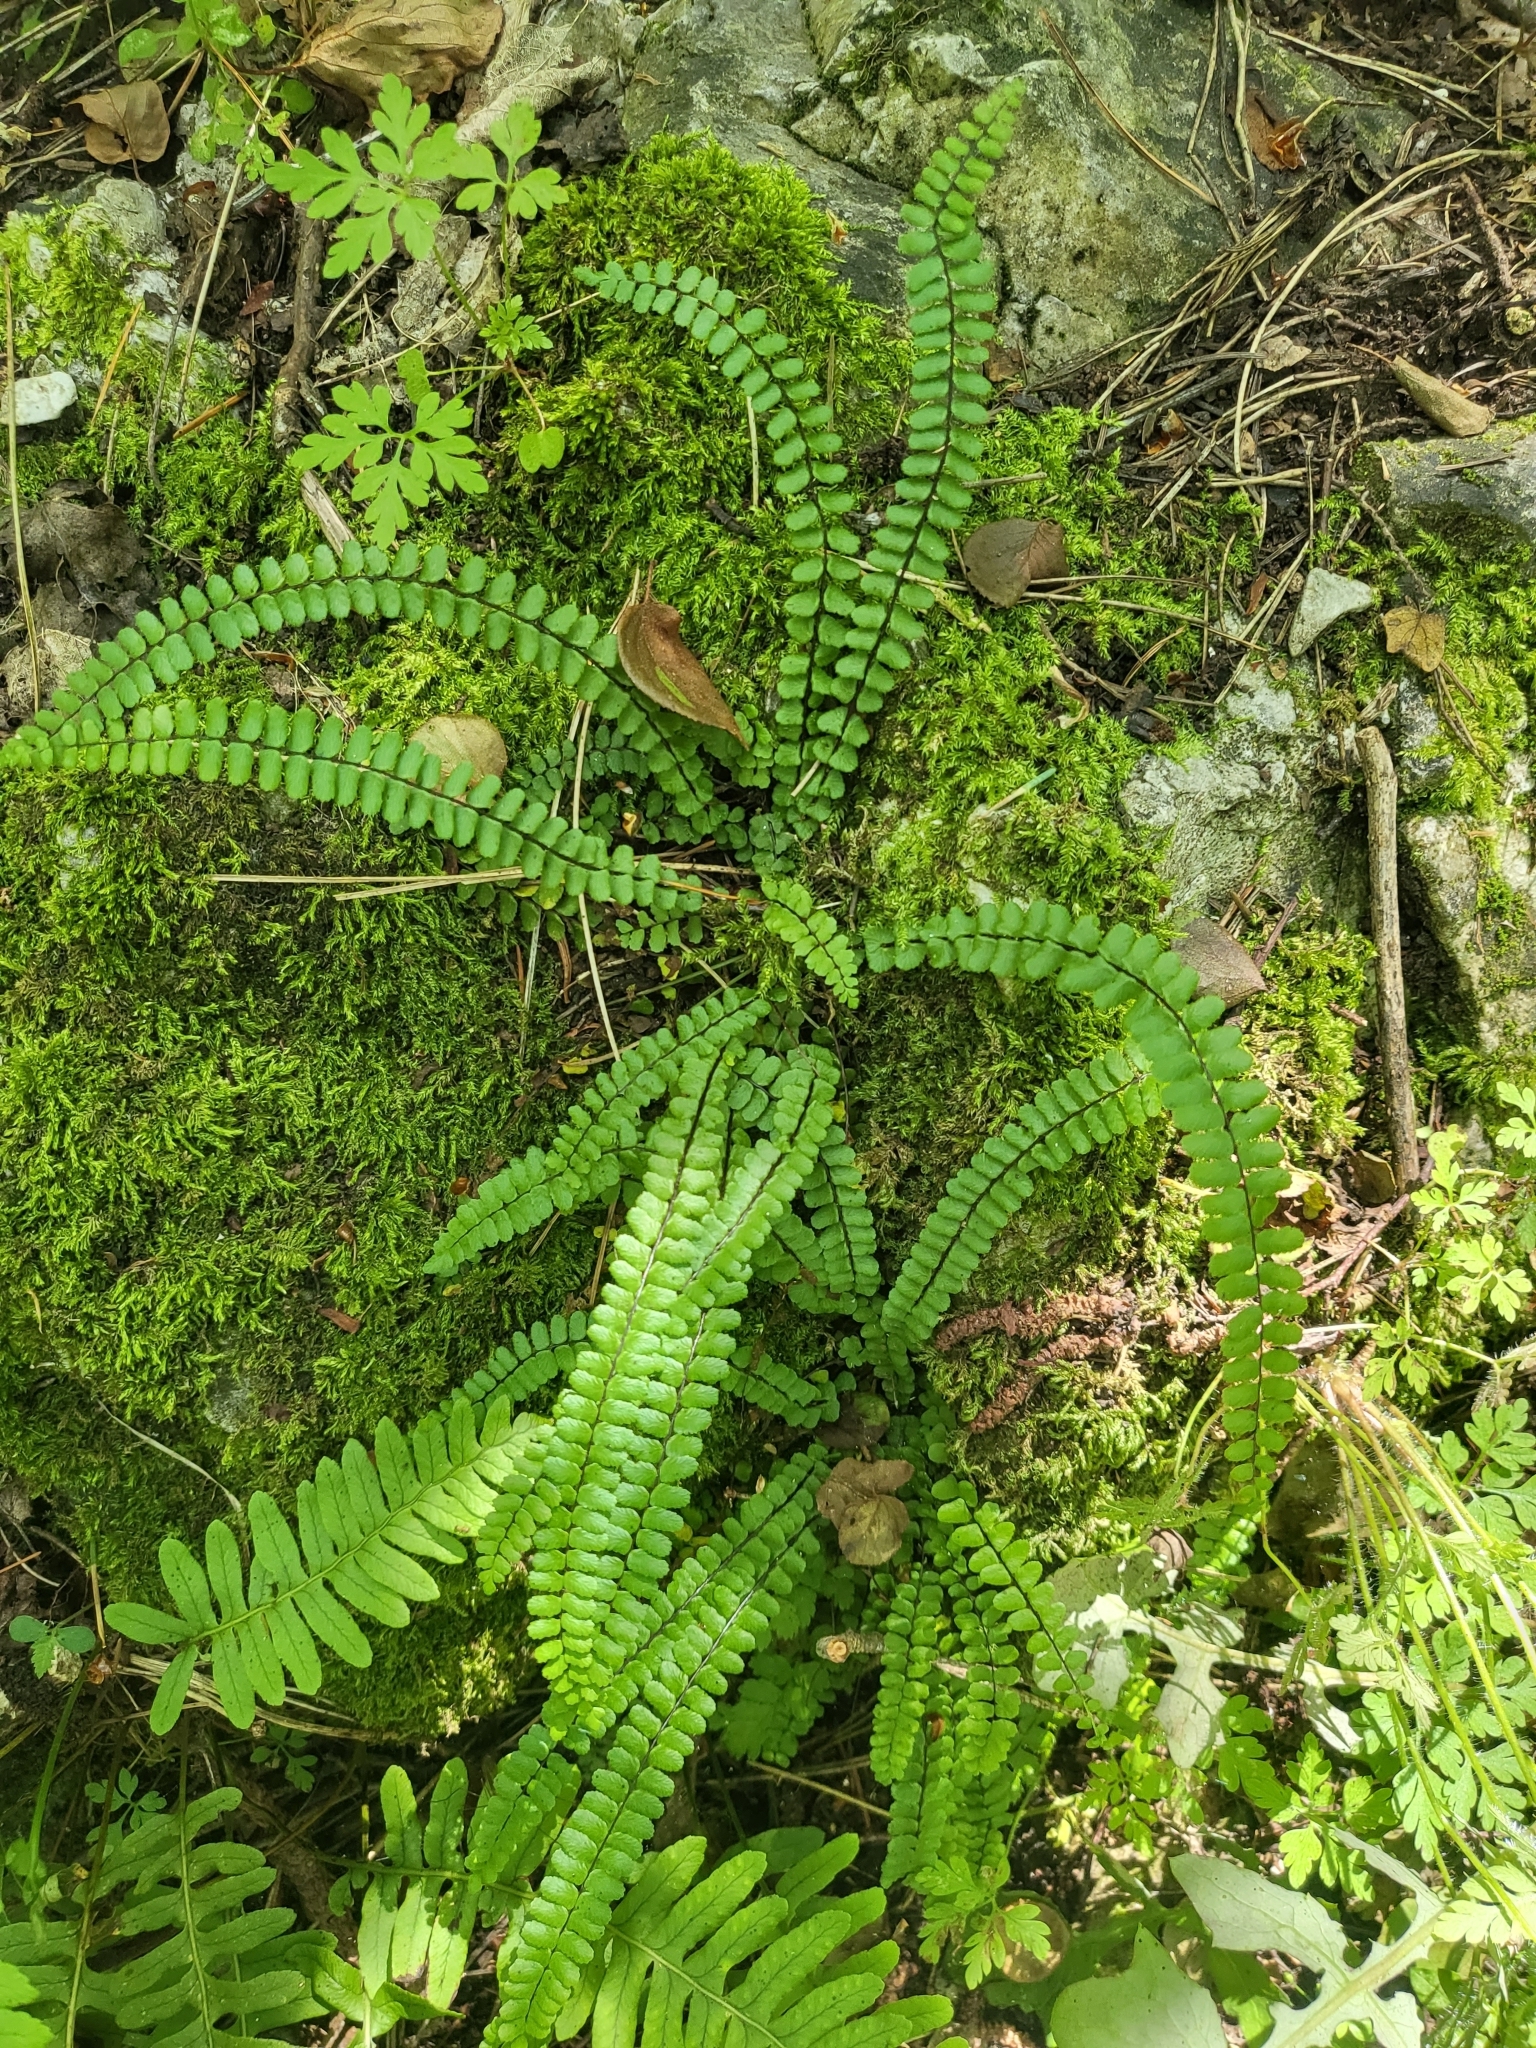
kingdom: Plantae
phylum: Tracheophyta
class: Polypodiopsida
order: Polypodiales
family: Aspleniaceae
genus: Asplenium
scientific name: Asplenium trichomanes
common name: Maidenhair spleenwort
